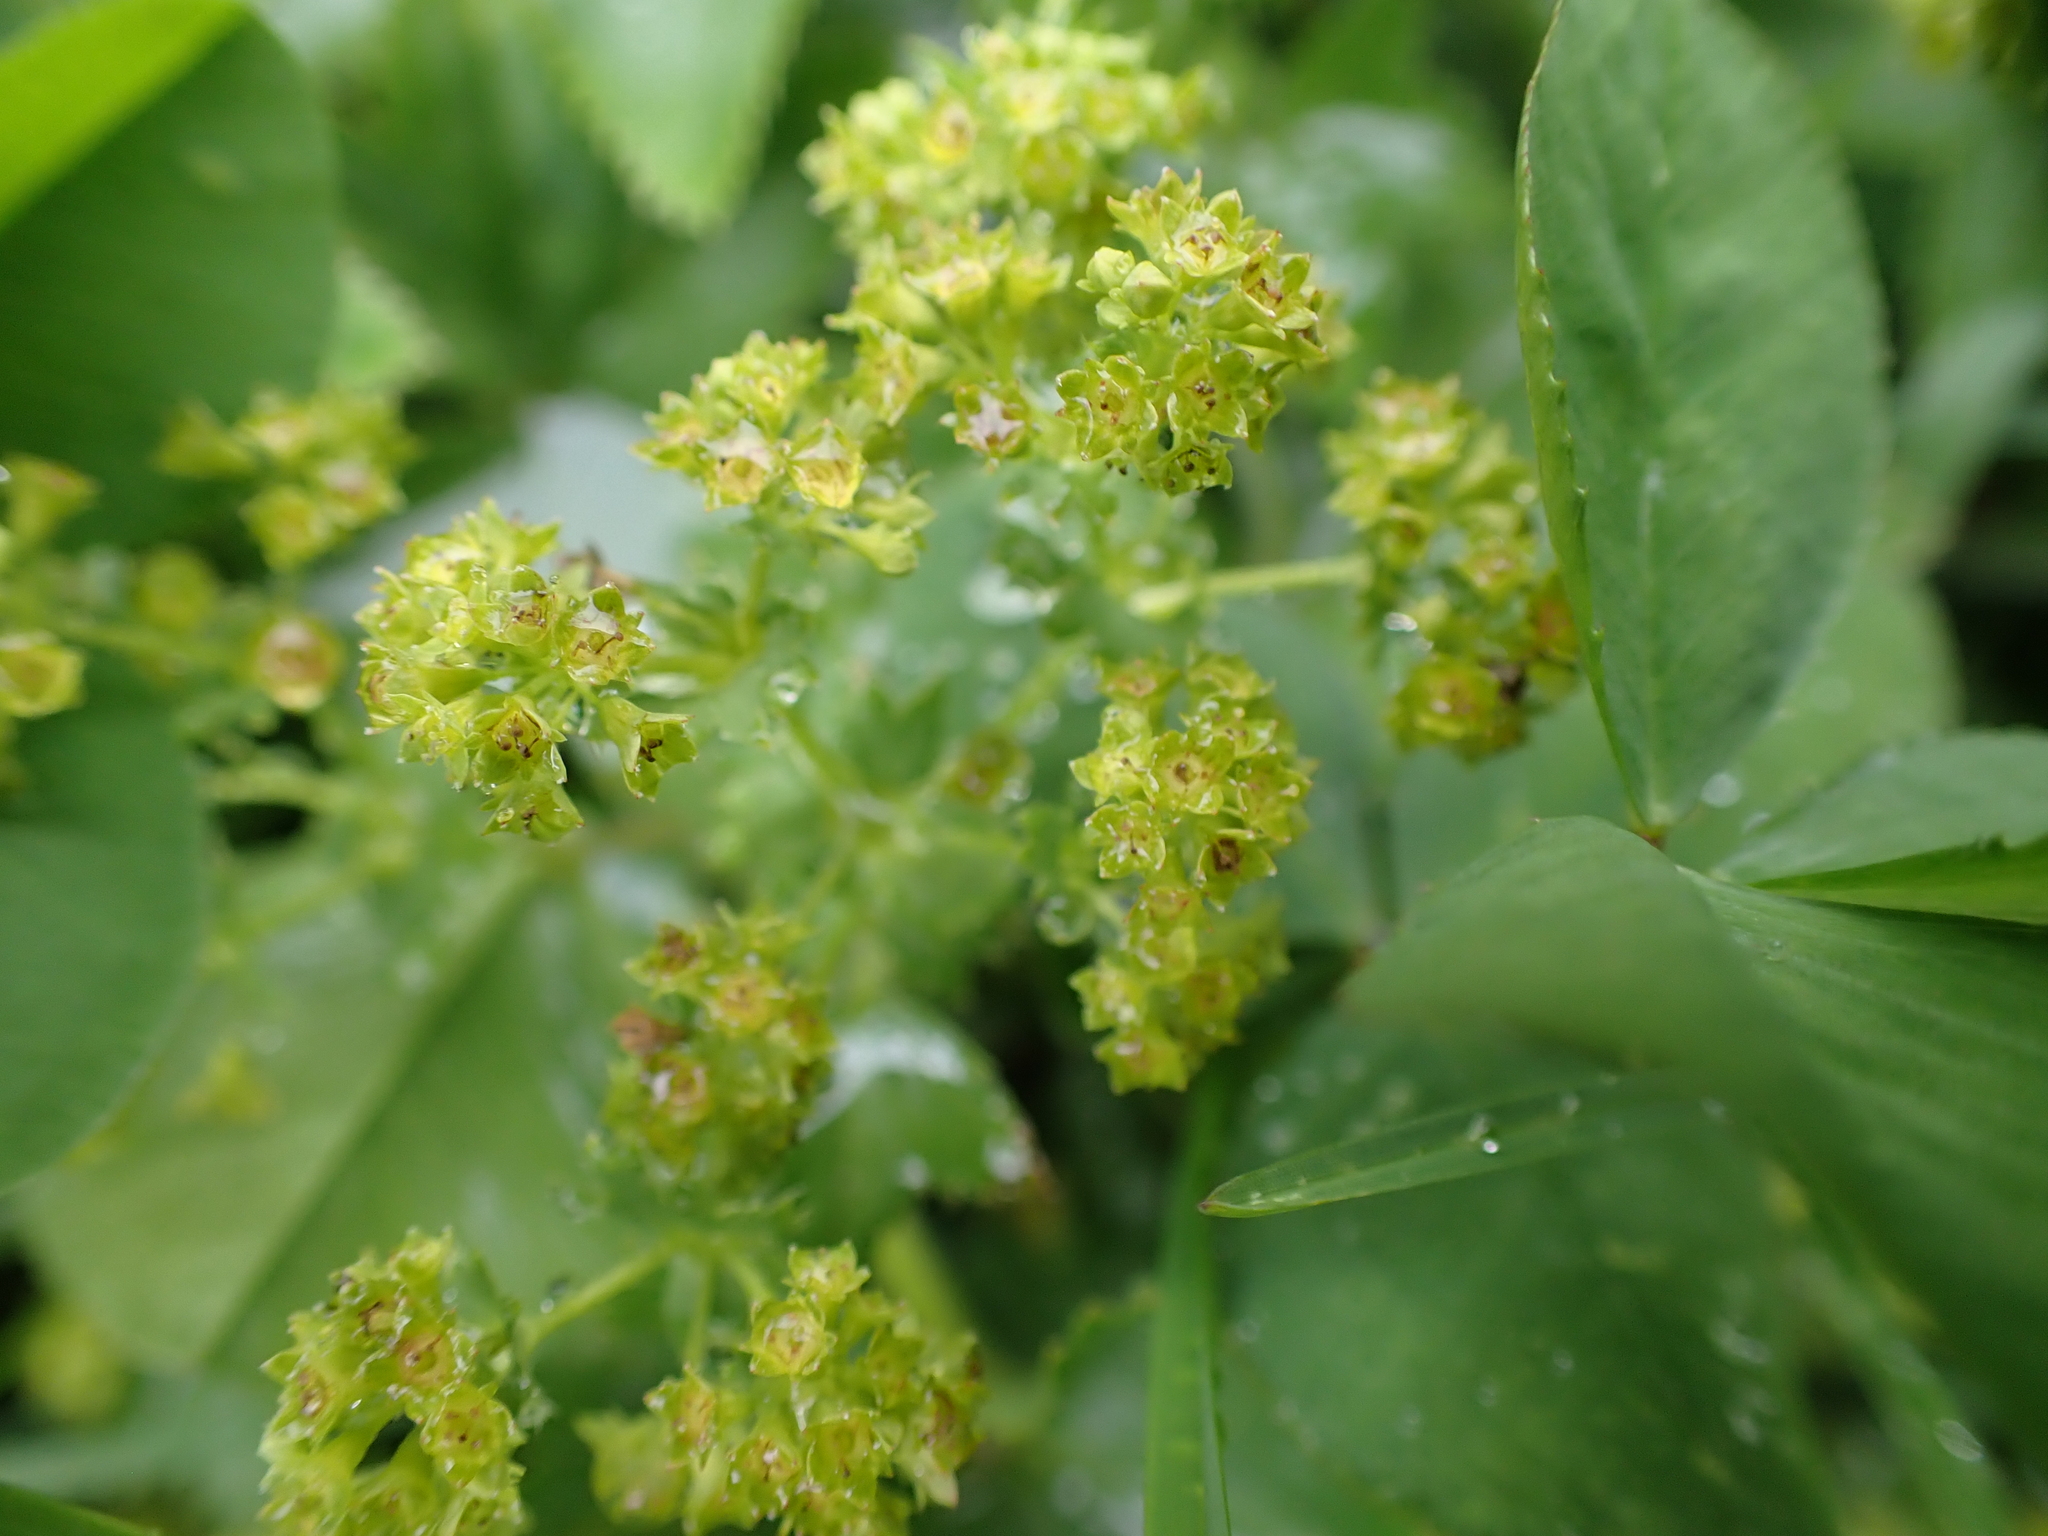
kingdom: Plantae
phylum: Tracheophyta
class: Magnoliopsida
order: Rosales
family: Rosaceae
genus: Alchemilla
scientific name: Alchemilla xanthochlora
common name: Intermediate lady's-mantle
